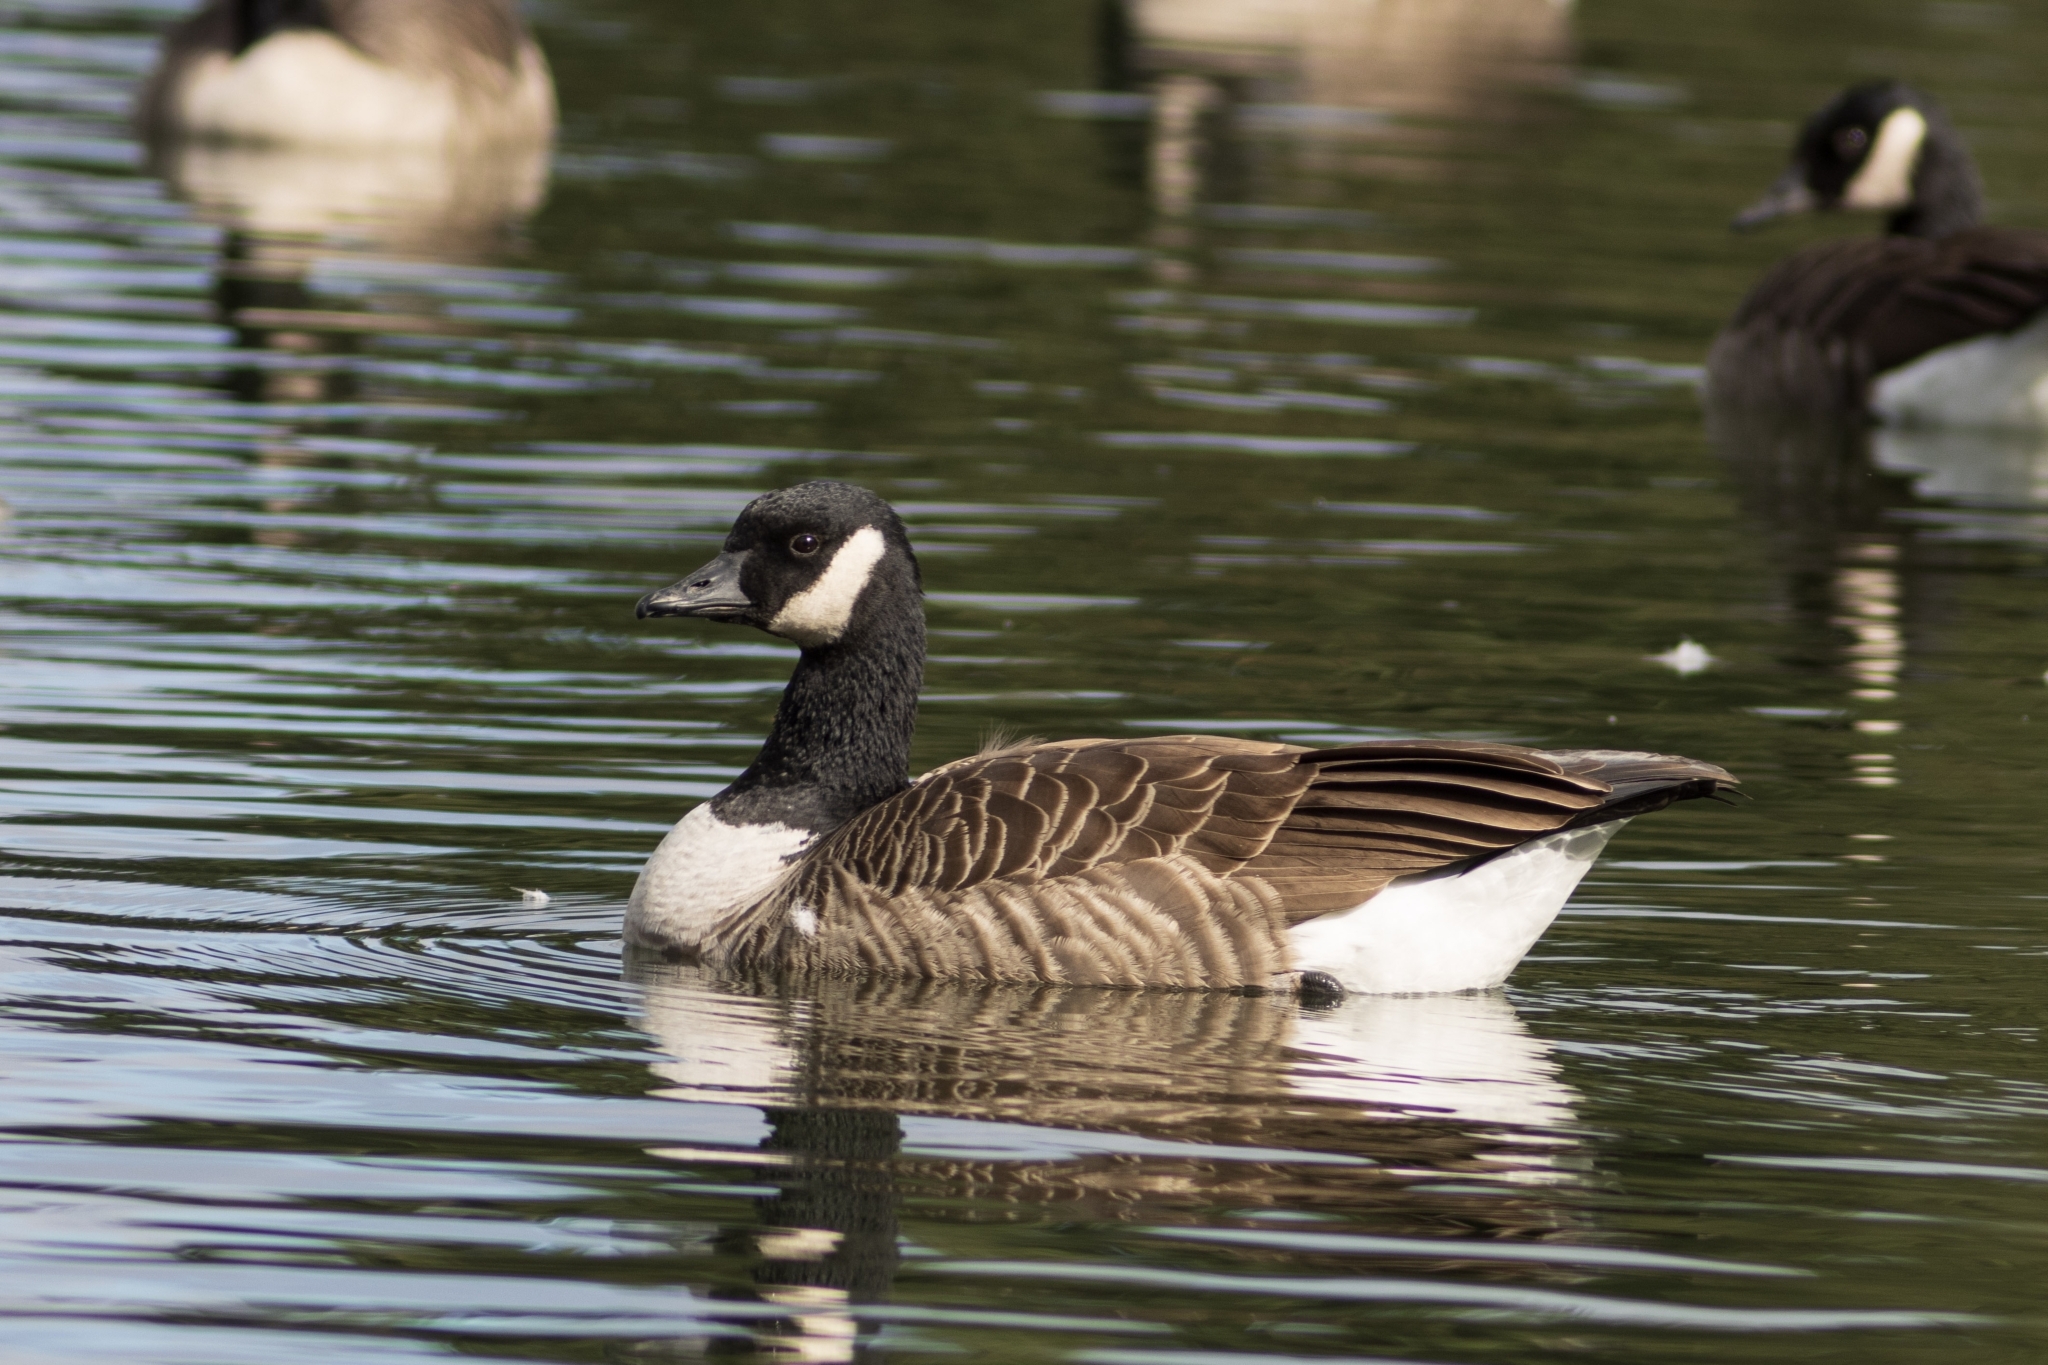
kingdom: Animalia
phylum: Chordata
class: Aves
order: Anseriformes
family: Anatidae
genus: Branta
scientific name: Branta hutchinsii
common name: Cackling goose
